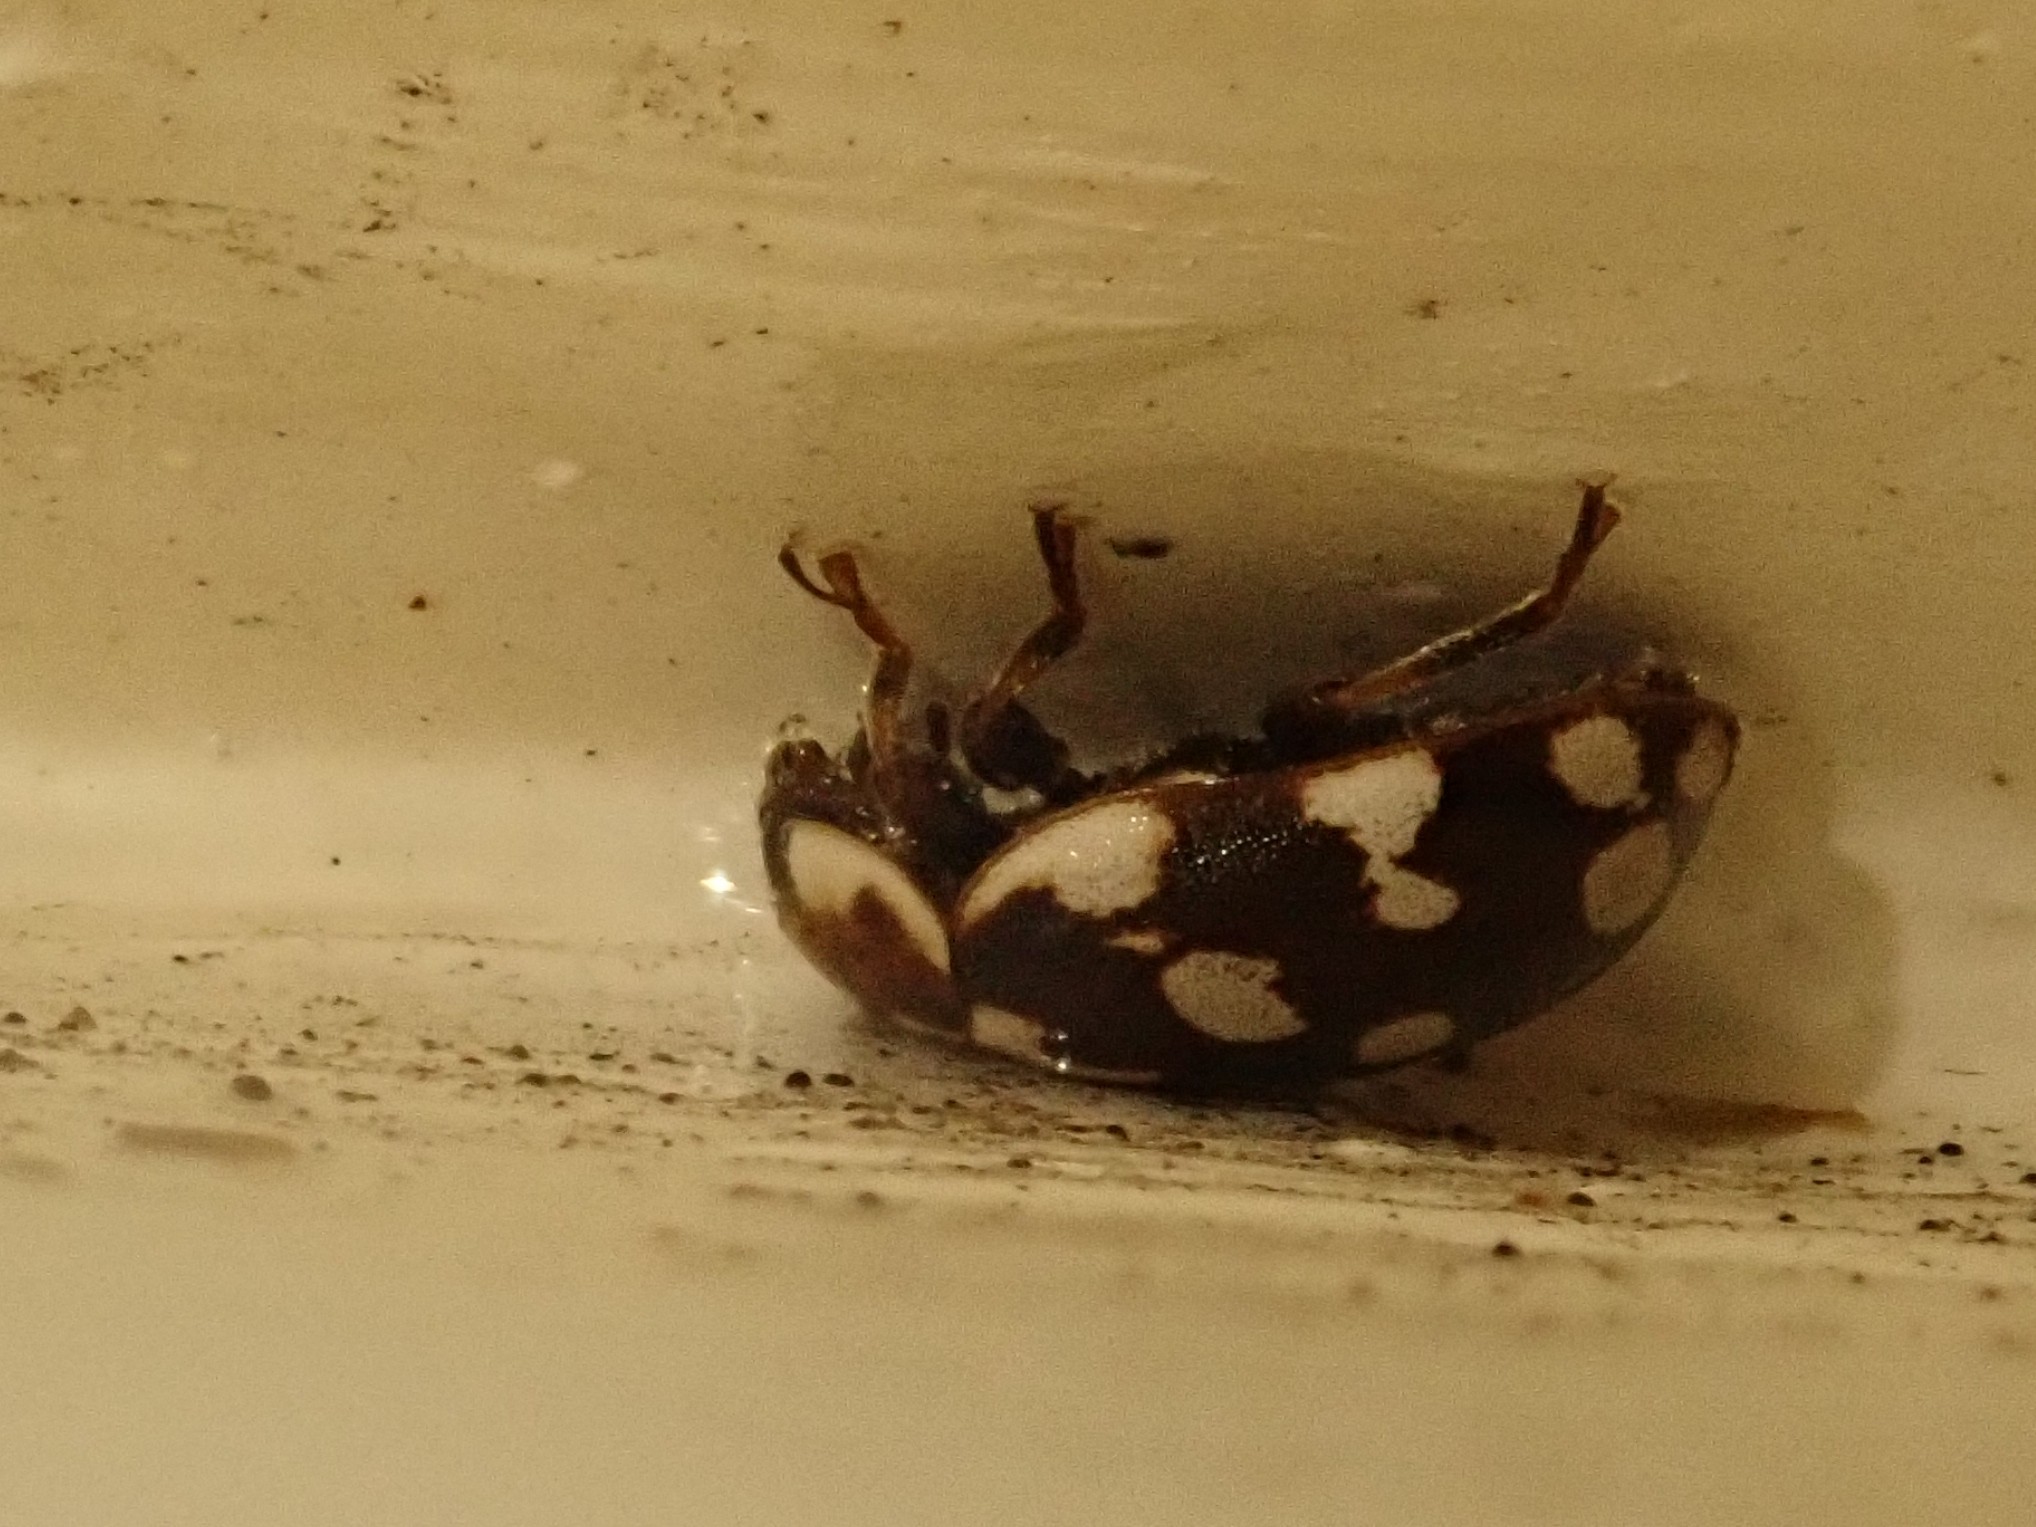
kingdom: Animalia
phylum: Arthropoda
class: Insecta
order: Coleoptera
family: Coccinellidae
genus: Myrrha
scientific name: Myrrha octodecimguttata
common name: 18-spot ladybird
